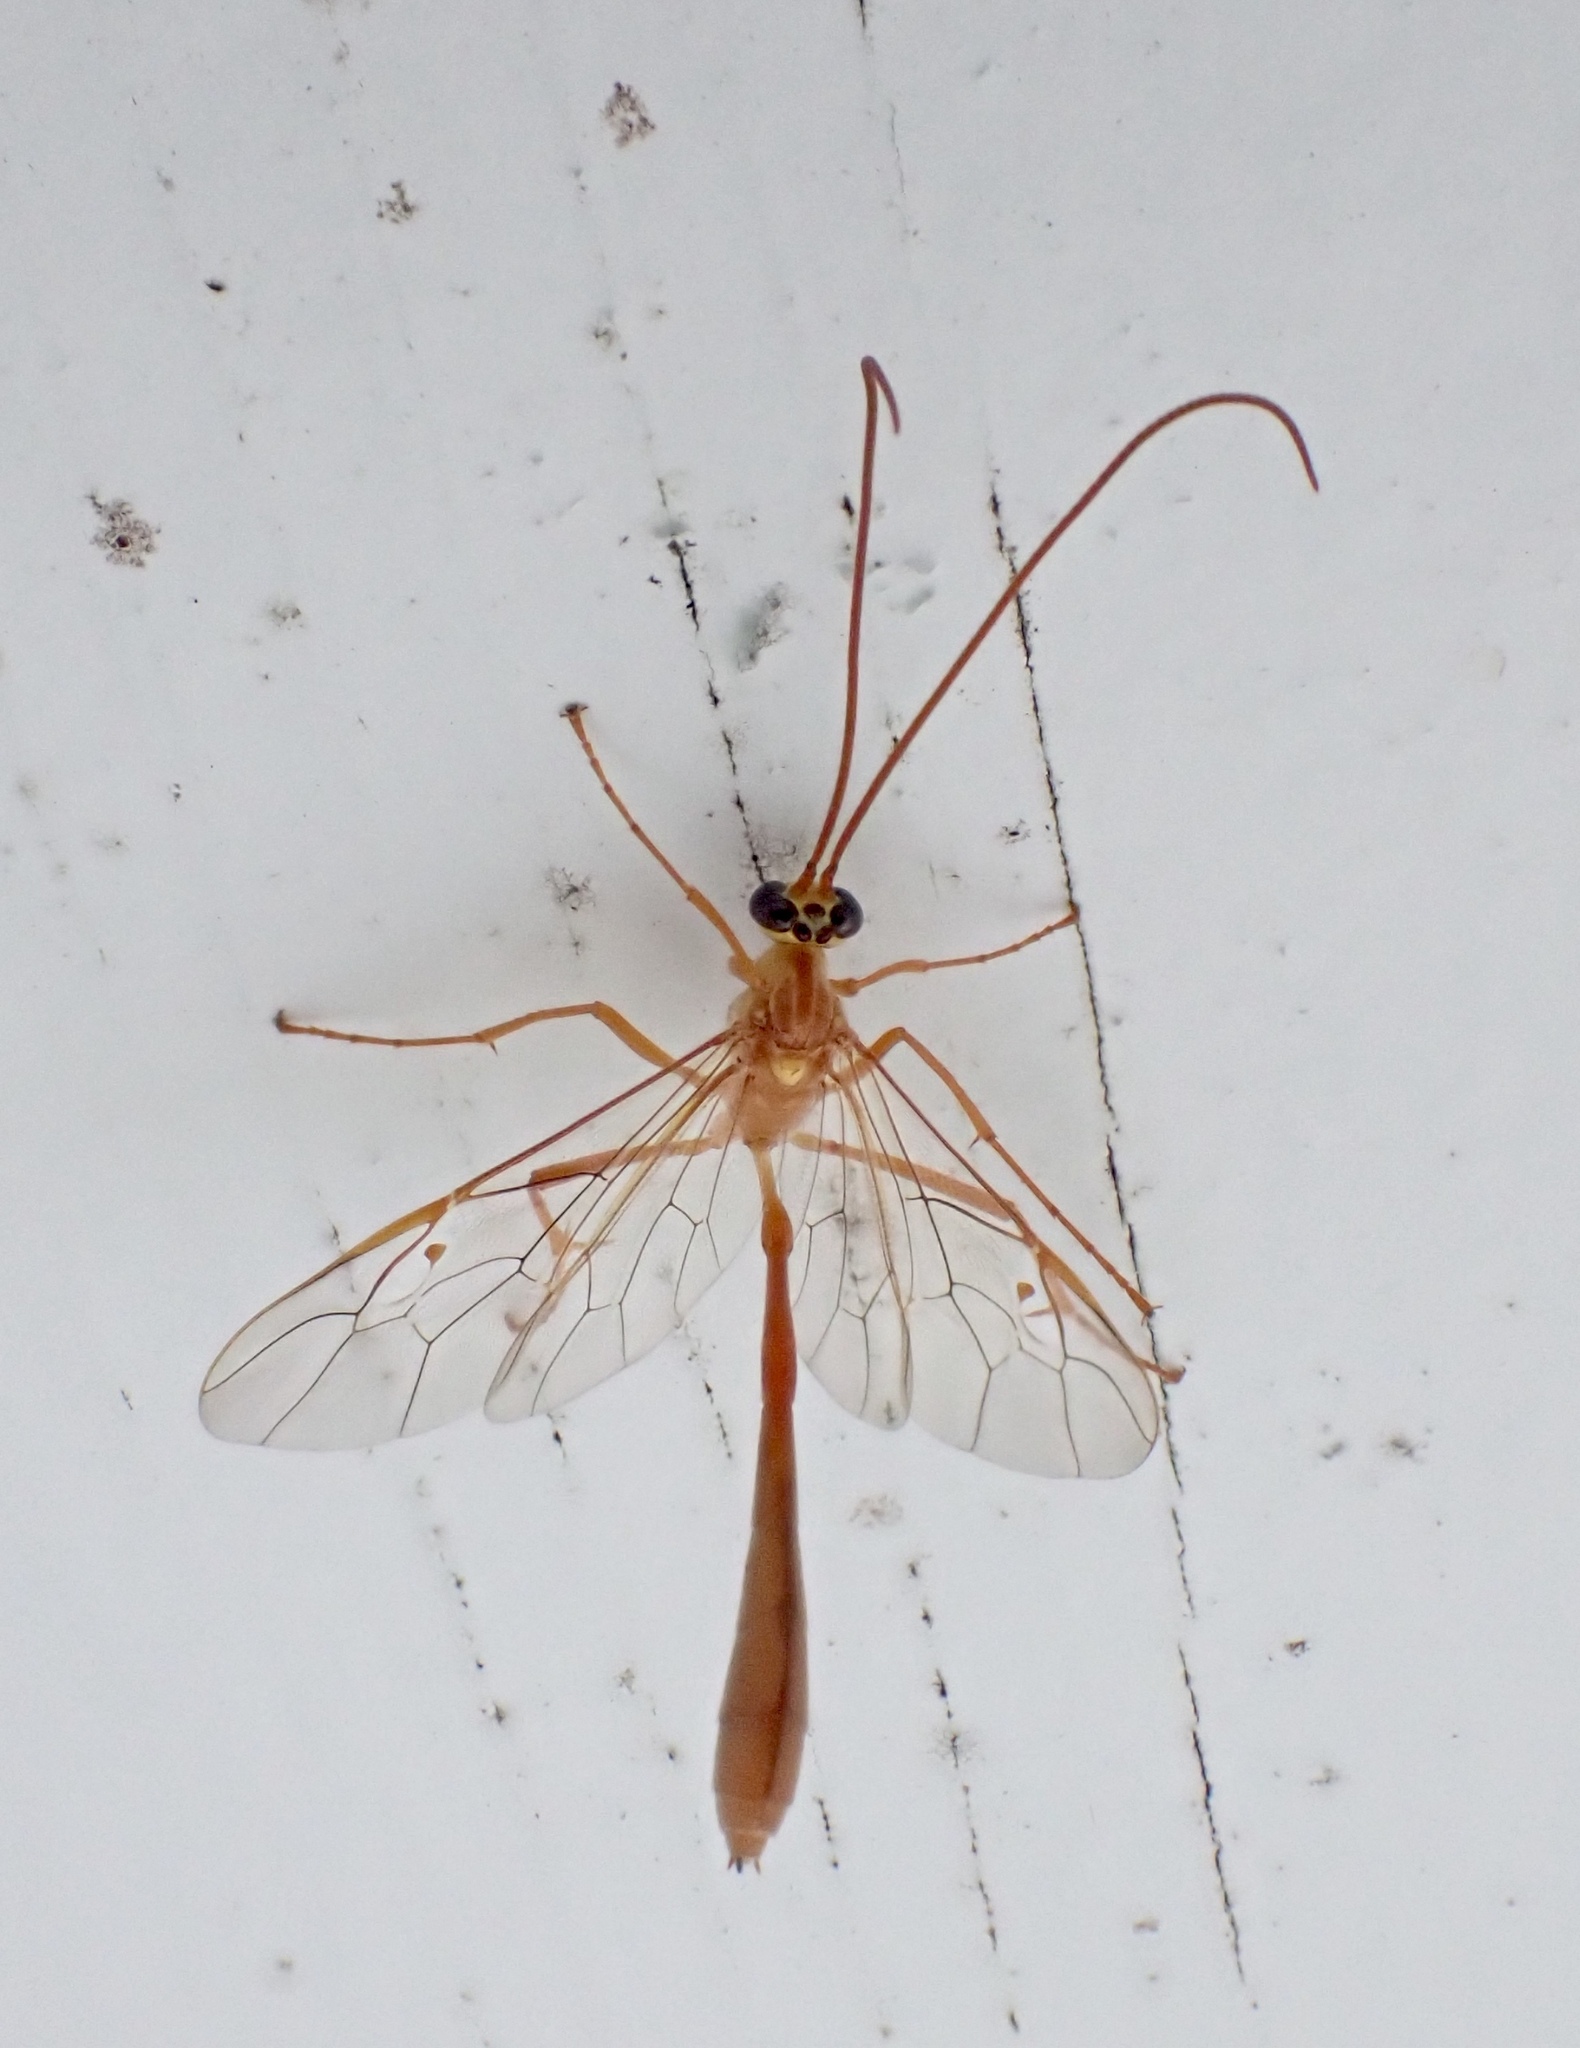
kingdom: Animalia
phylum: Arthropoda
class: Insecta
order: Hymenoptera
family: Ichneumonidae
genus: Enicospilus
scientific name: Enicospilus guatemalensis
